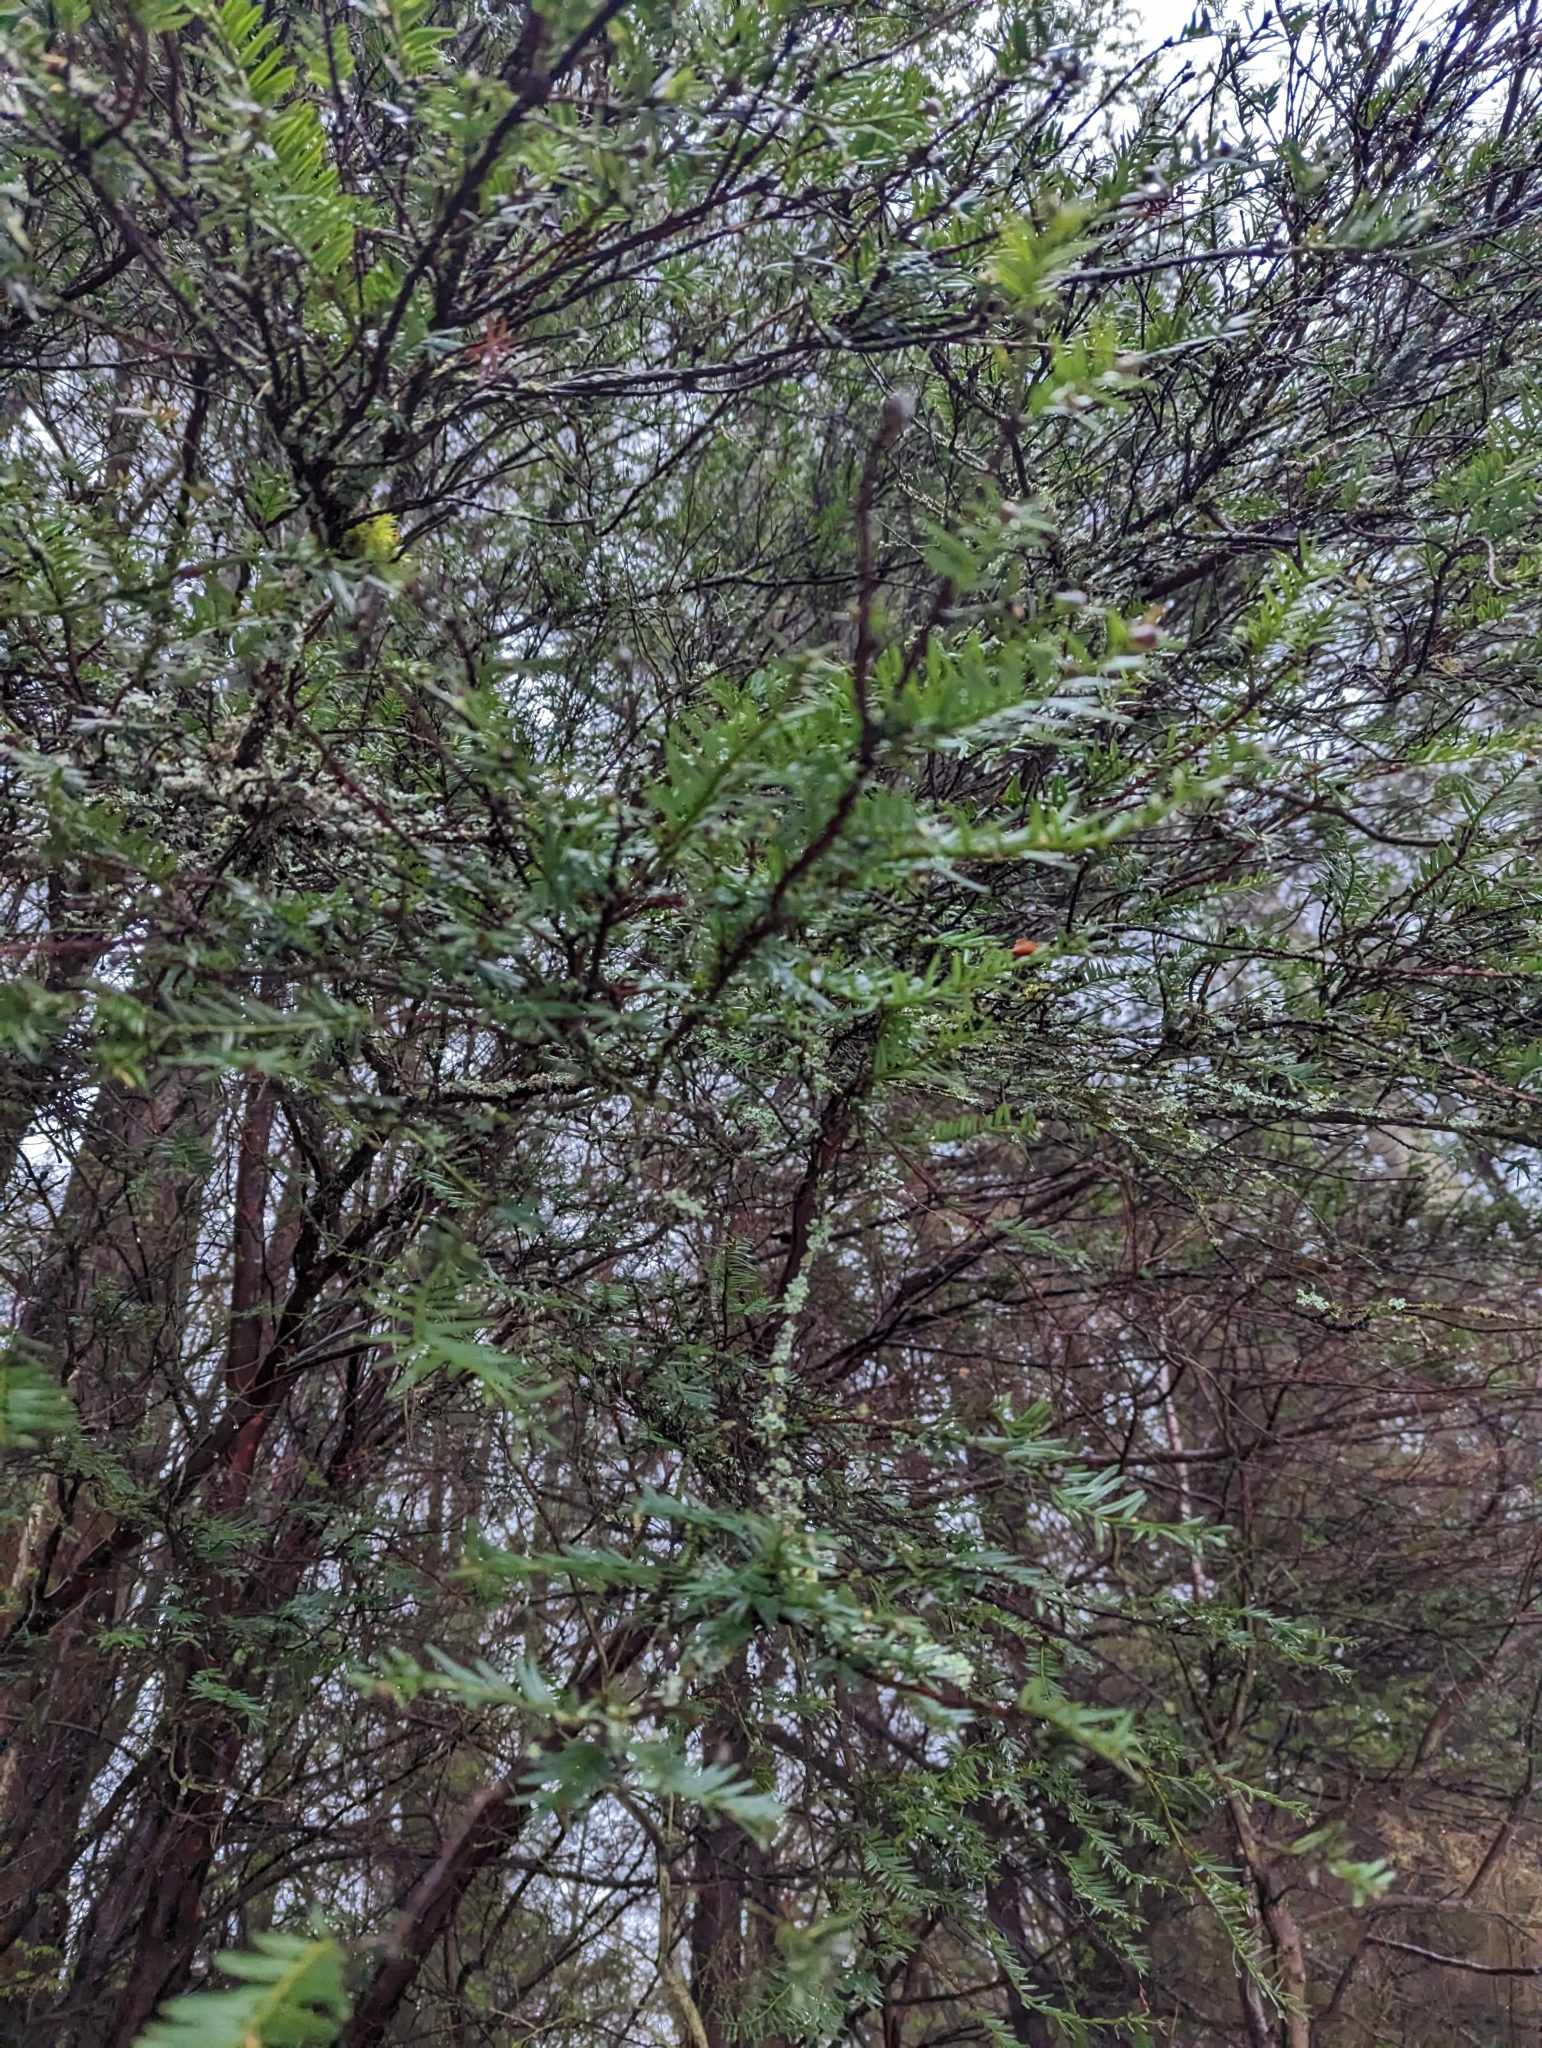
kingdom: Plantae
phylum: Tracheophyta
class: Pinopsida
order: Pinales
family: Taxaceae
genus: Taxus
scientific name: Taxus brevifolia
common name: Pacific yew
